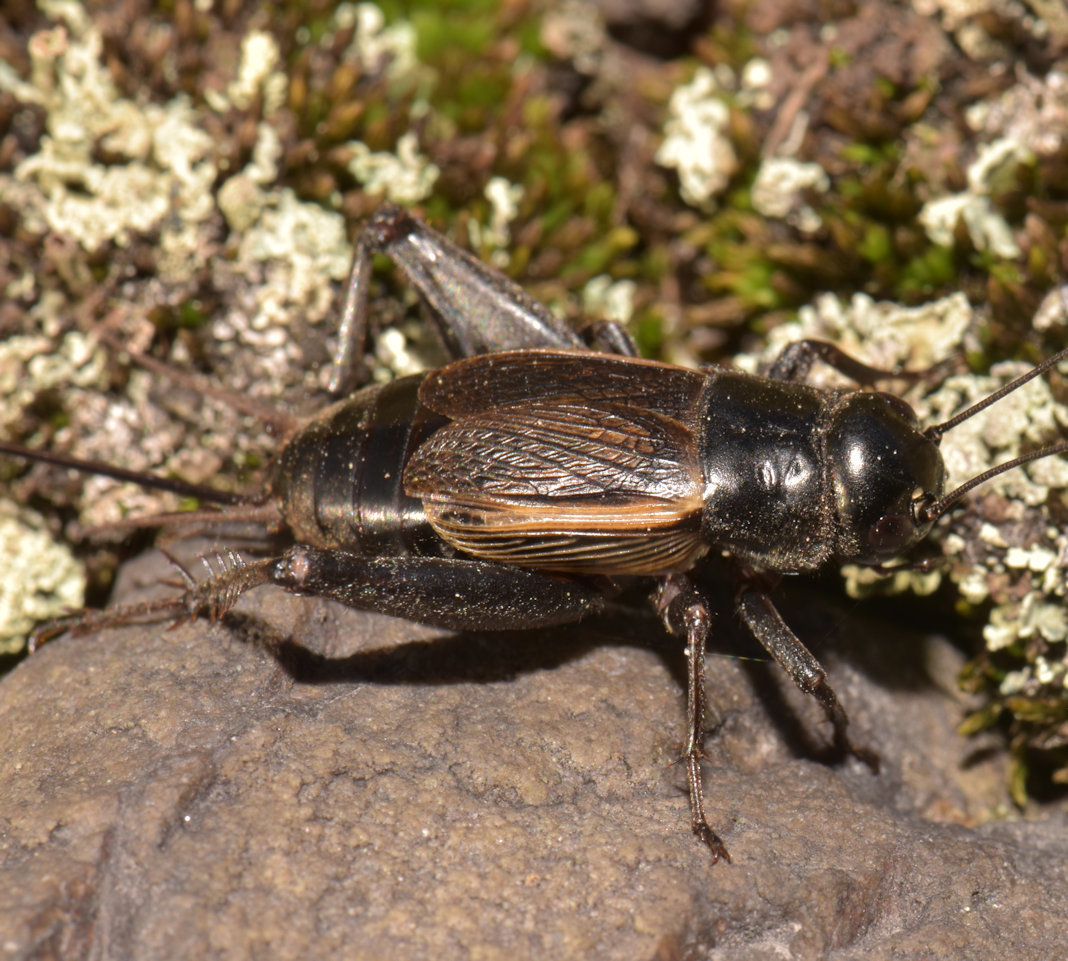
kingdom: Animalia
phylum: Arthropoda
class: Insecta
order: Orthoptera
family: Gryllidae
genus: Gryllus
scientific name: Gryllus pennsylvanicus
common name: Fall field cricket
